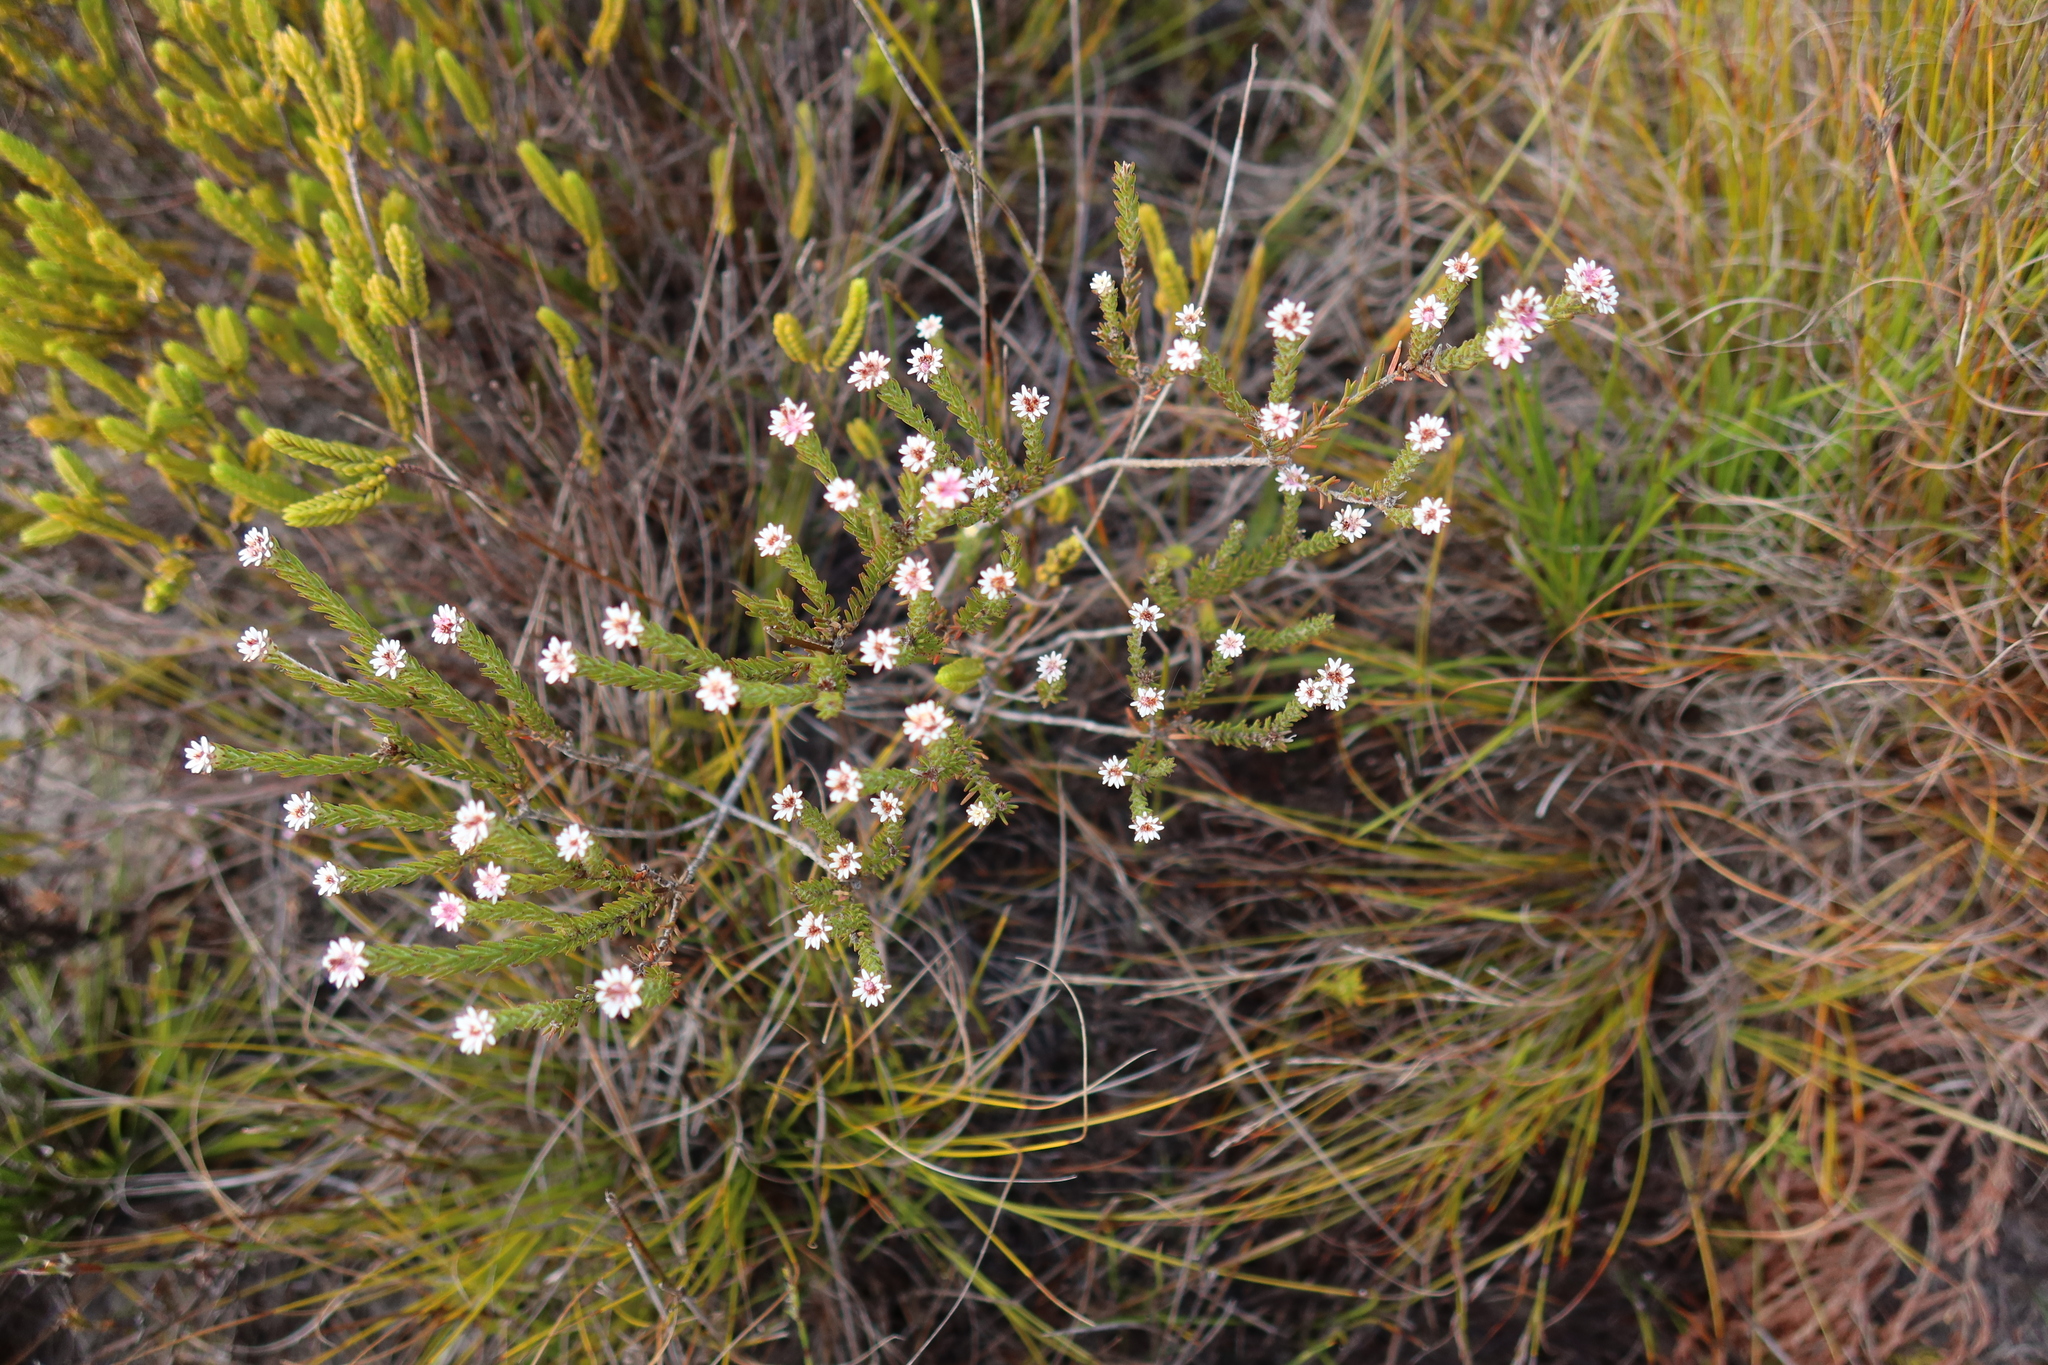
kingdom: Plantae
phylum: Tracheophyta
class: Magnoliopsida
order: Bruniales
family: Bruniaceae
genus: Staavia
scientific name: Staavia radiata
